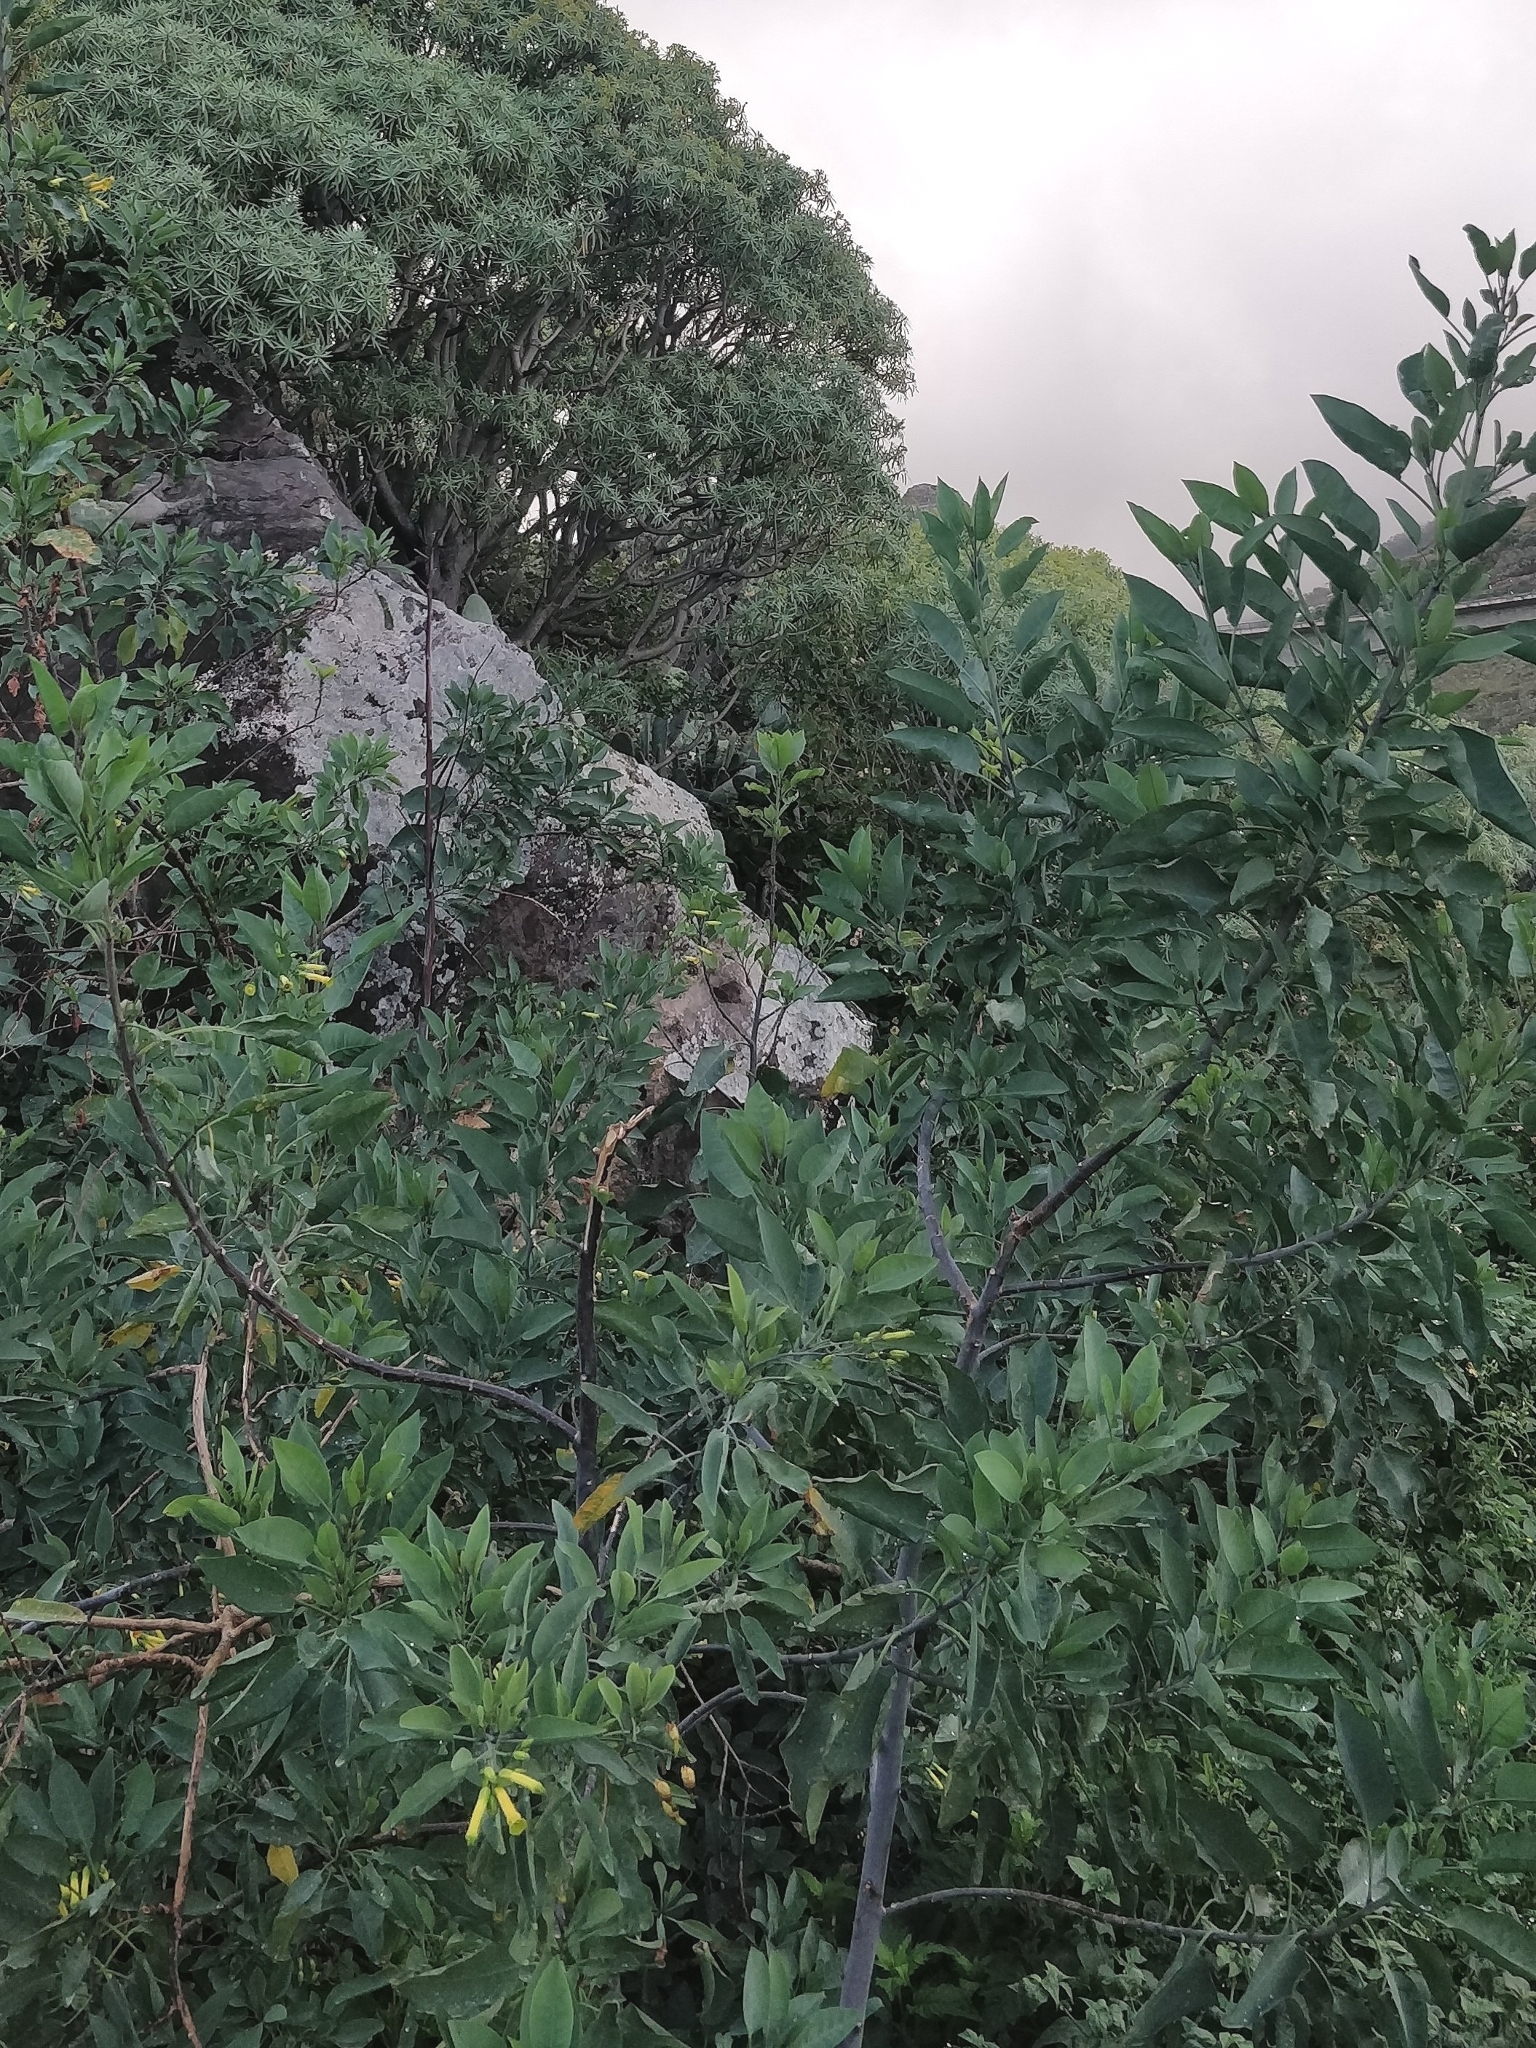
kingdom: Plantae
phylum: Tracheophyta
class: Magnoliopsida
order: Solanales
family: Solanaceae
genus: Nicotiana
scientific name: Nicotiana glauca
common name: Tree tobacco
